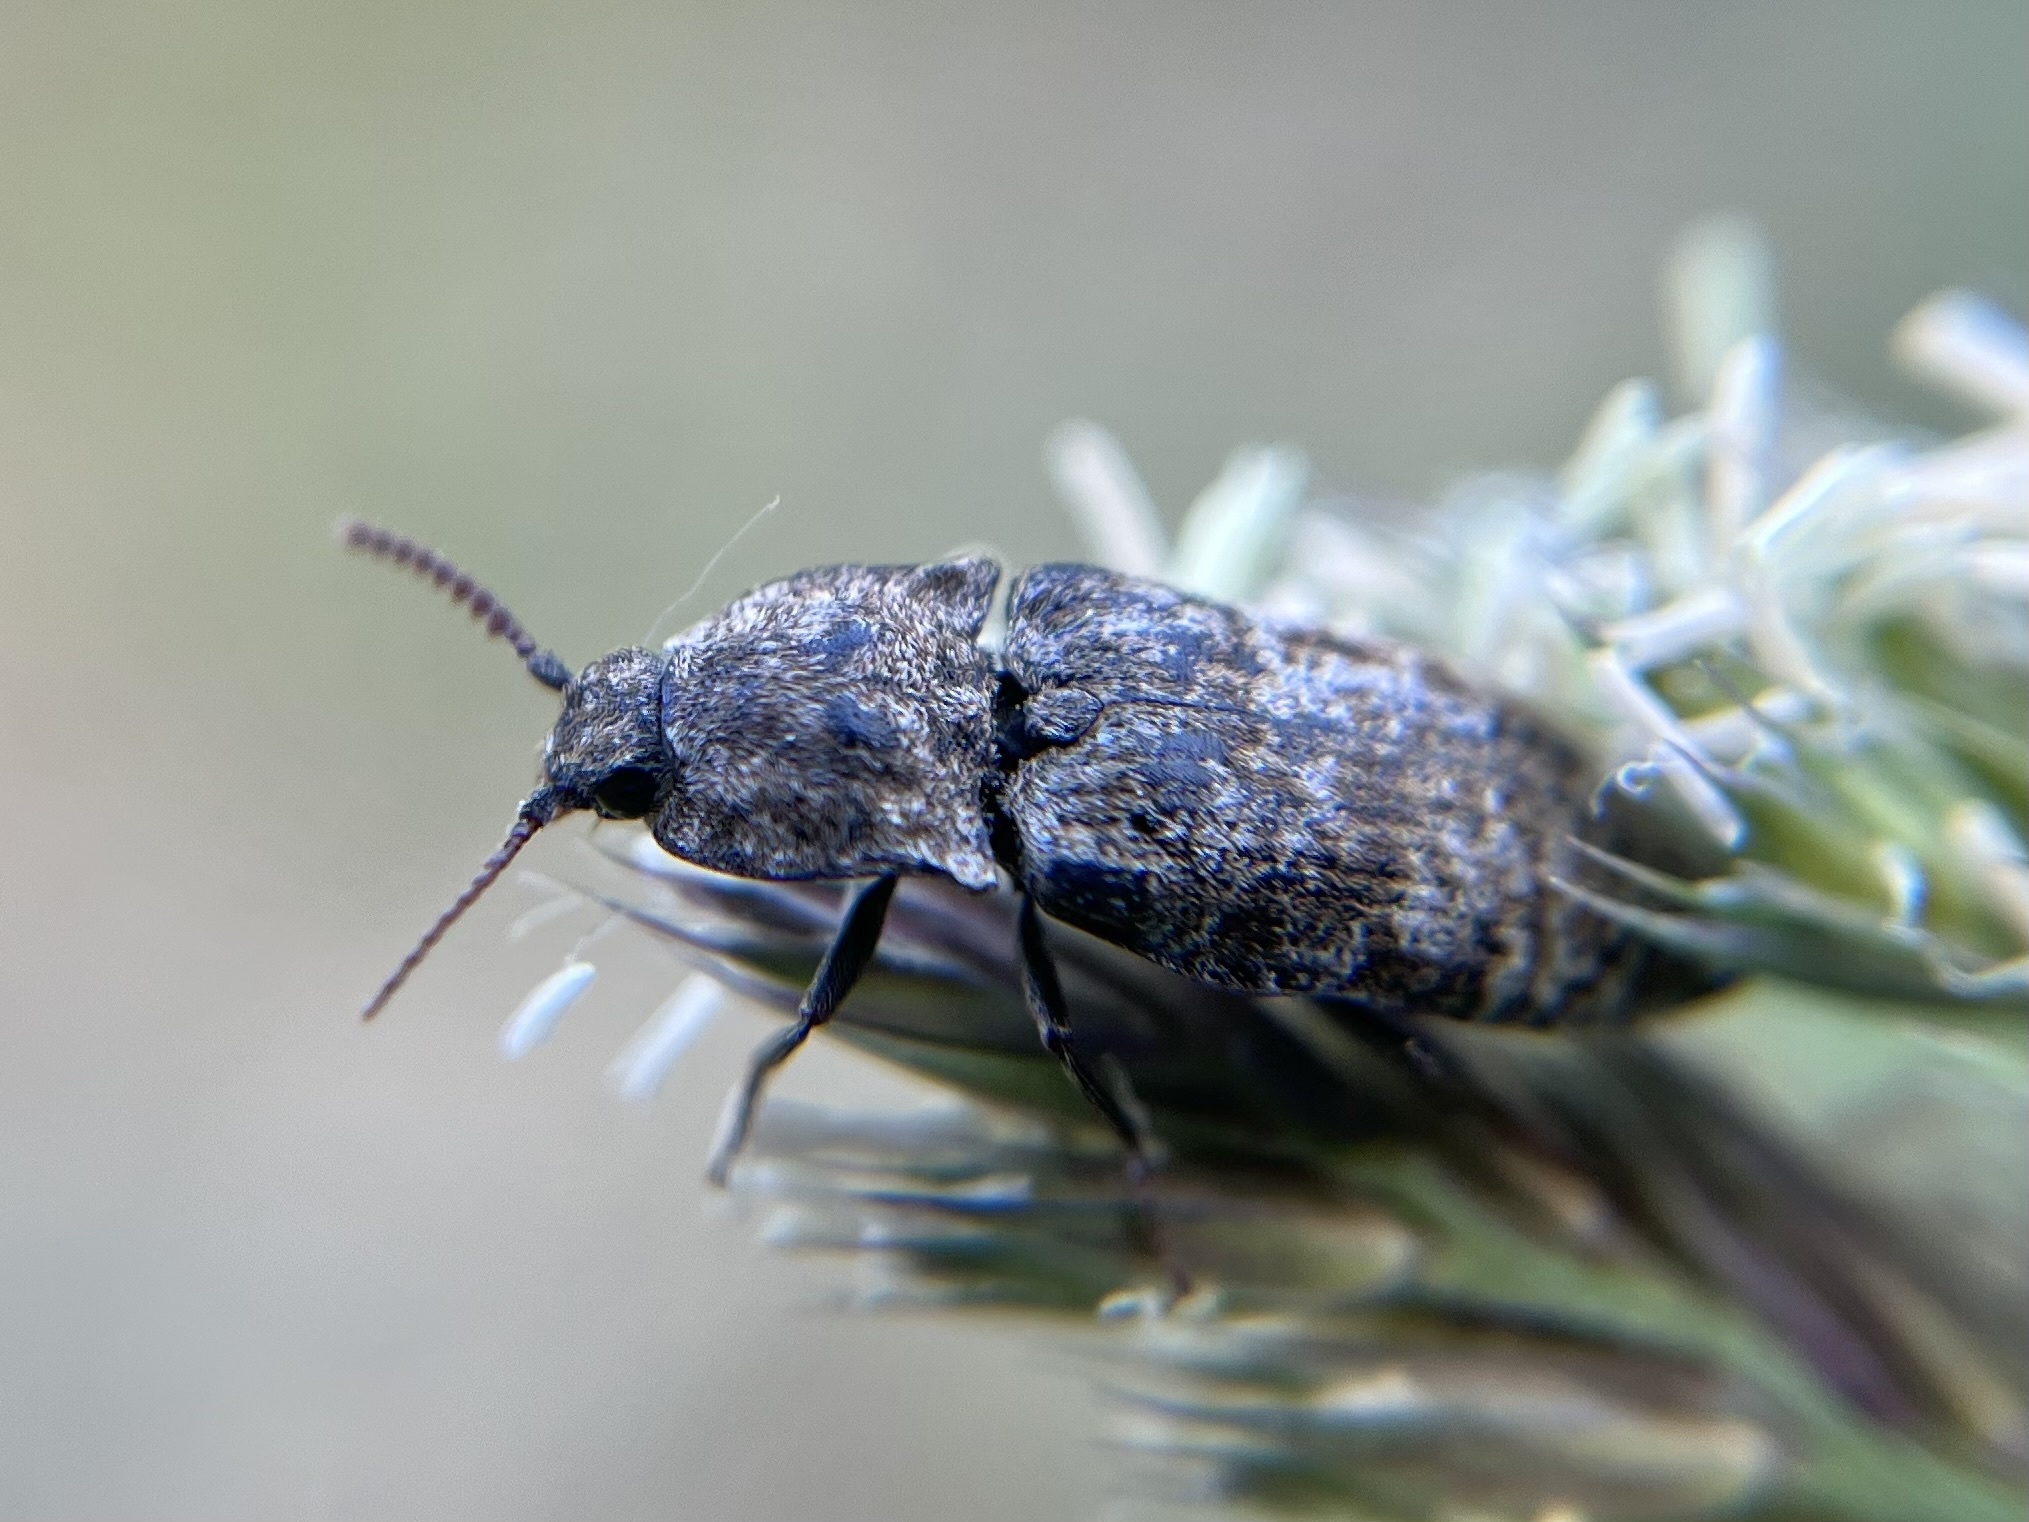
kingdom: Animalia
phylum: Arthropoda
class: Insecta
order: Coleoptera
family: Elateridae
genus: Agrypnus
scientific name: Agrypnus murinus
